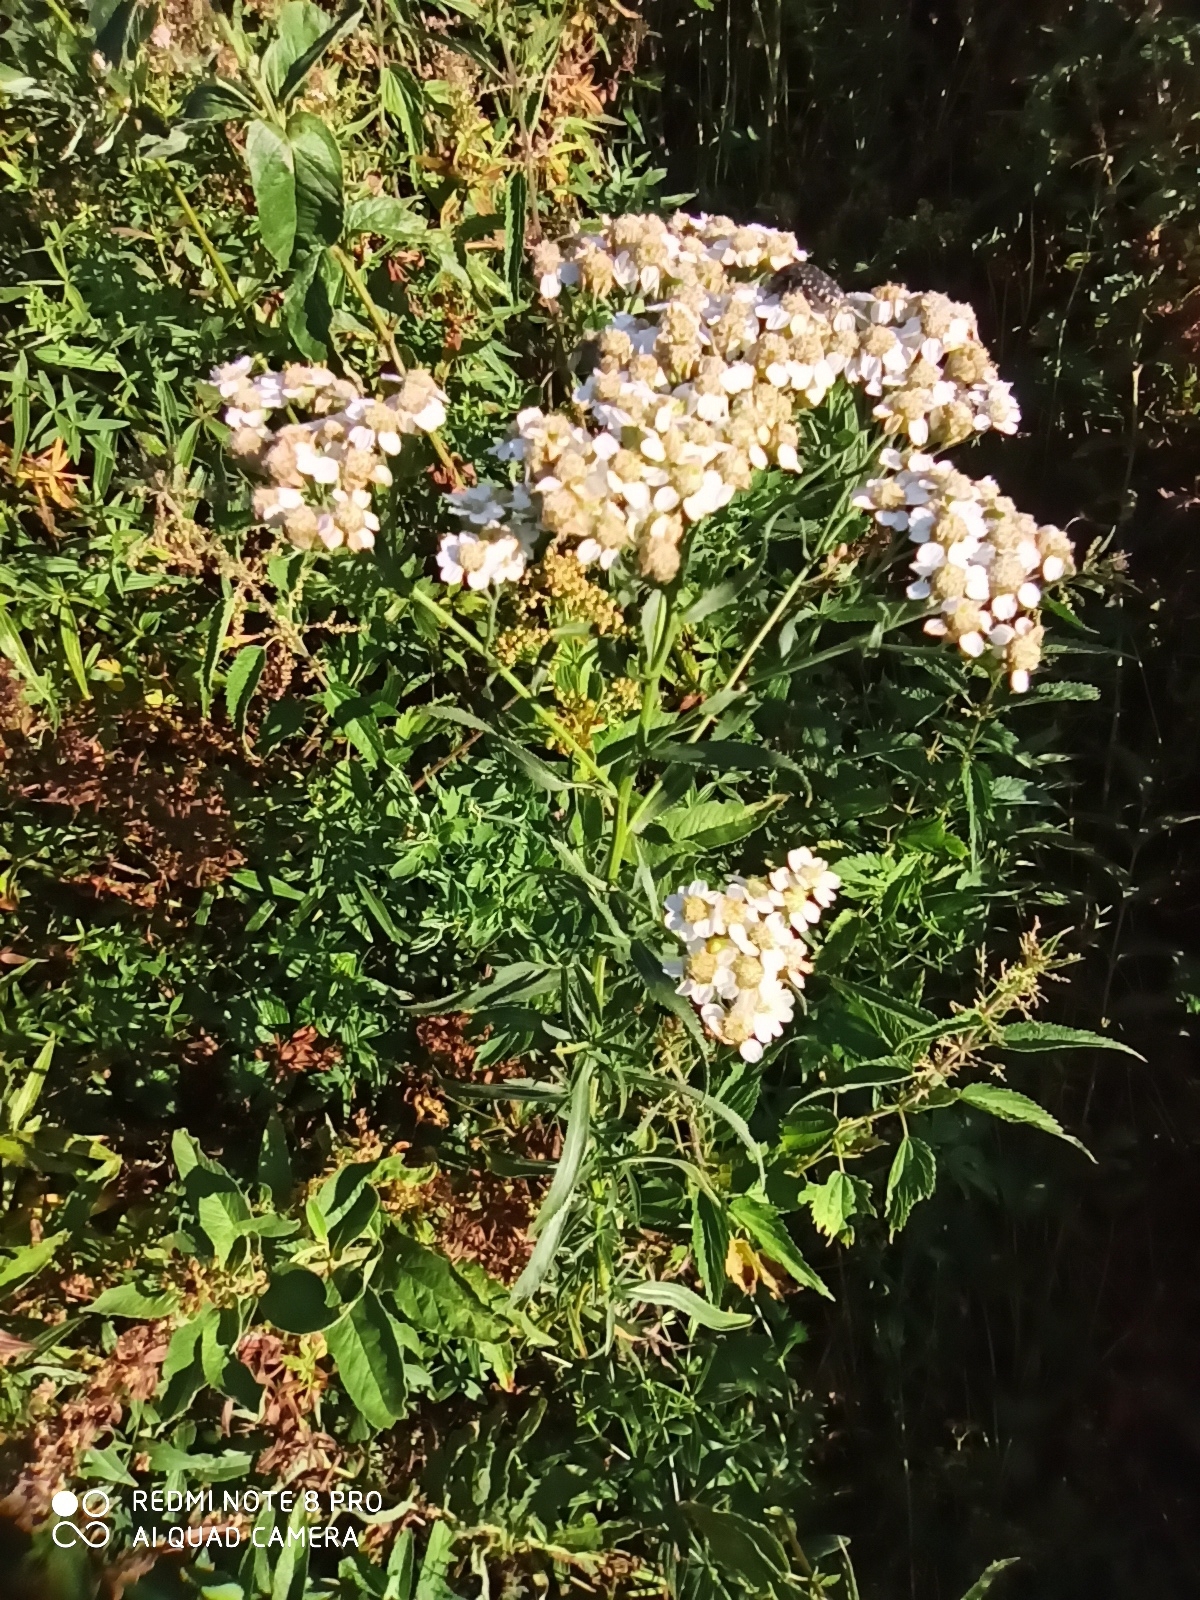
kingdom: Plantae
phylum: Tracheophyta
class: Magnoliopsida
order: Asterales
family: Asteraceae
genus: Achillea
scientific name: Achillea salicifolia
